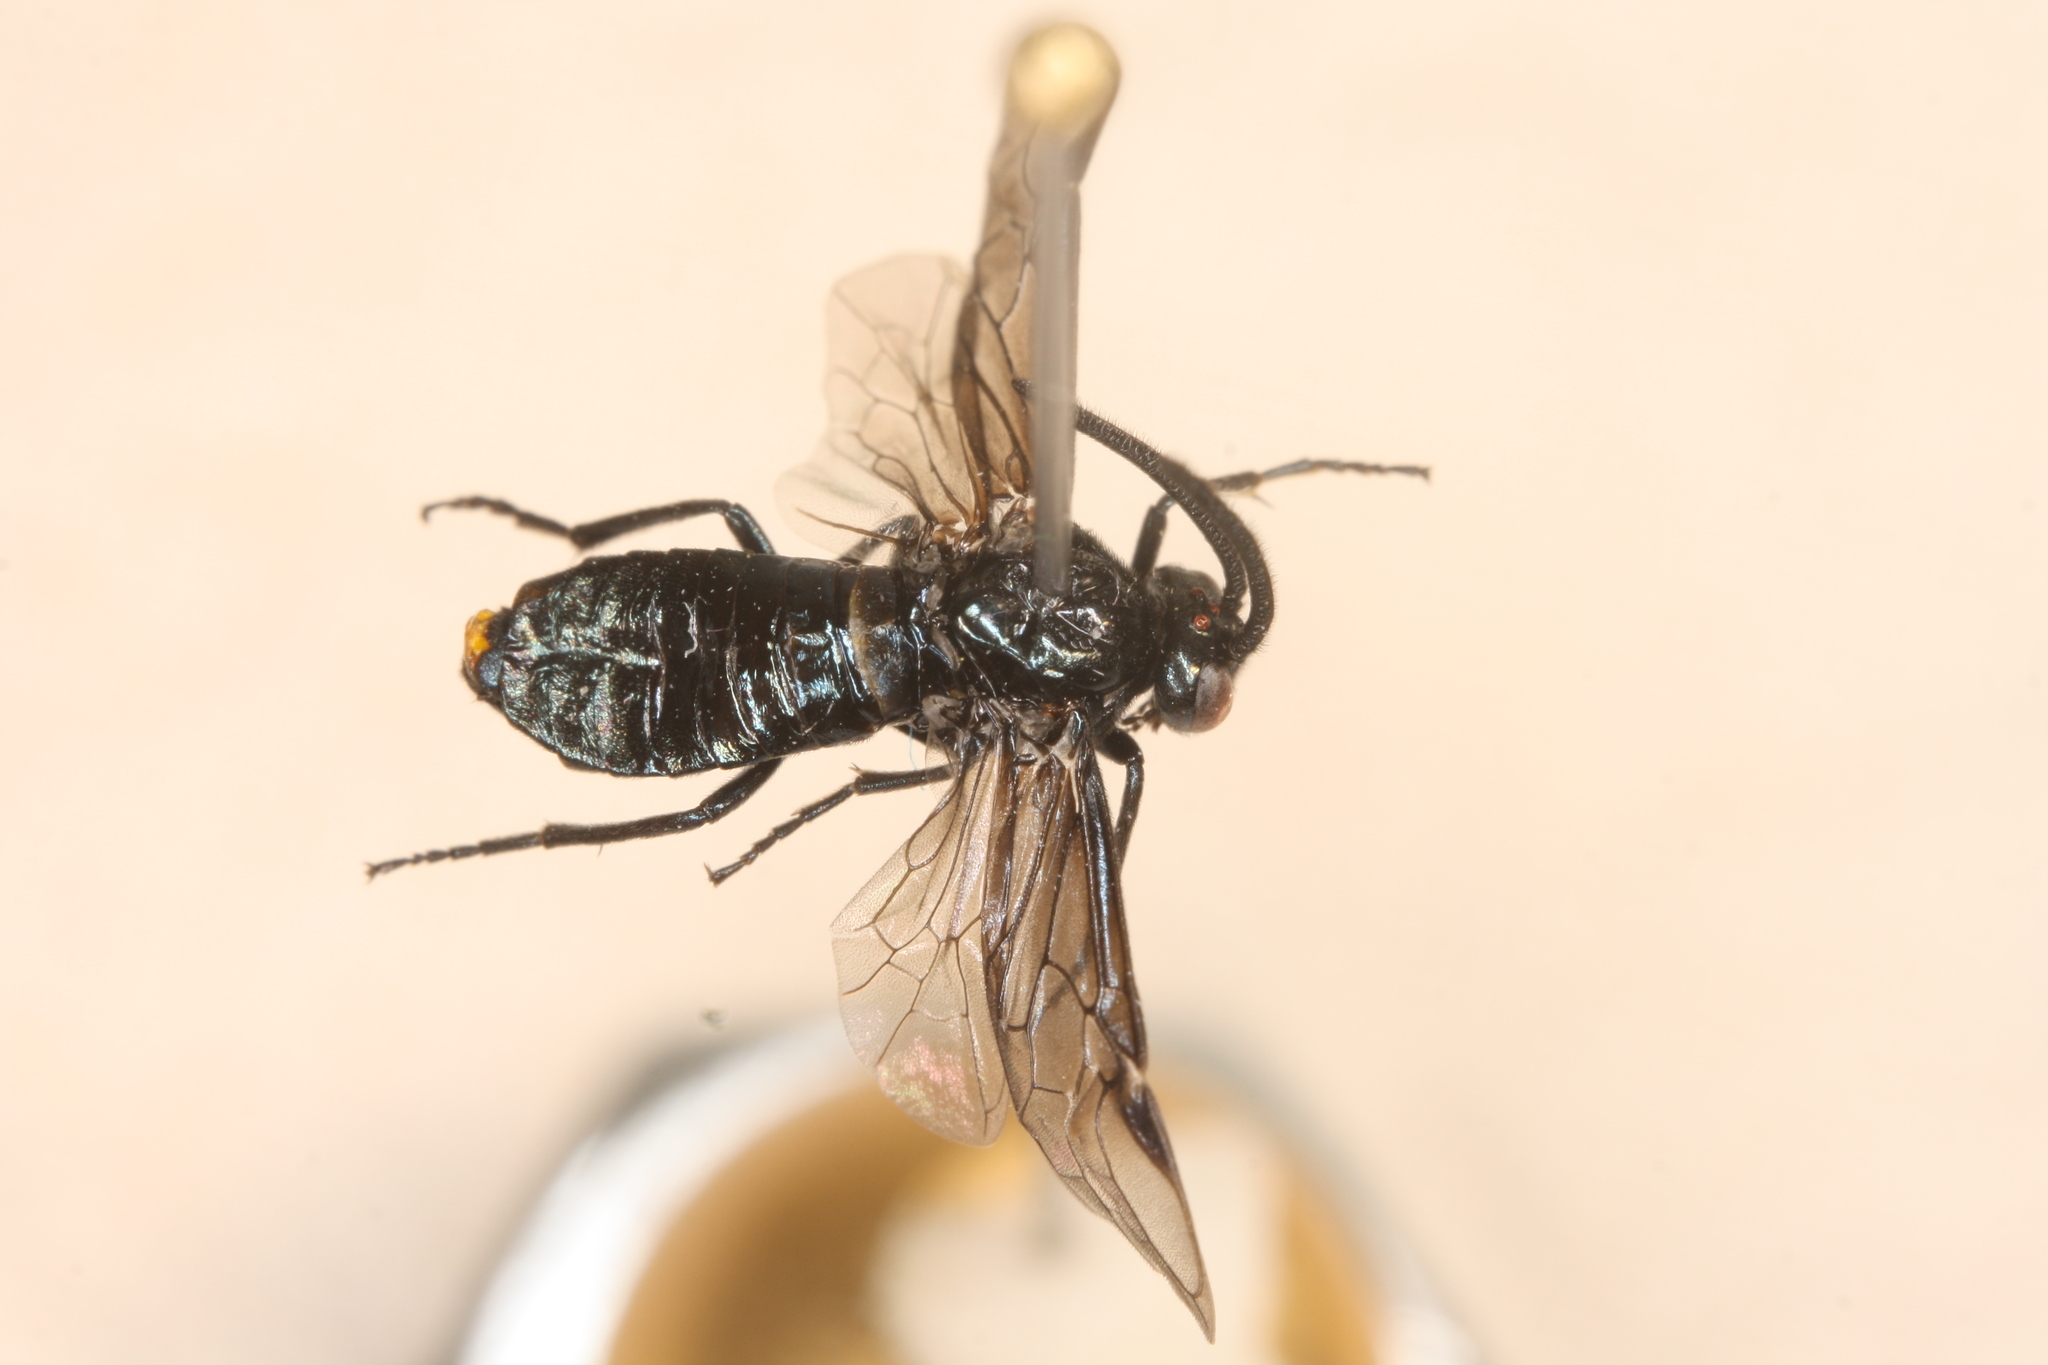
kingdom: Animalia
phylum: Arthropoda
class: Insecta
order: Hymenoptera
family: Argidae
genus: Arge
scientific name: Arge berberidis
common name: Berberis sawfly
